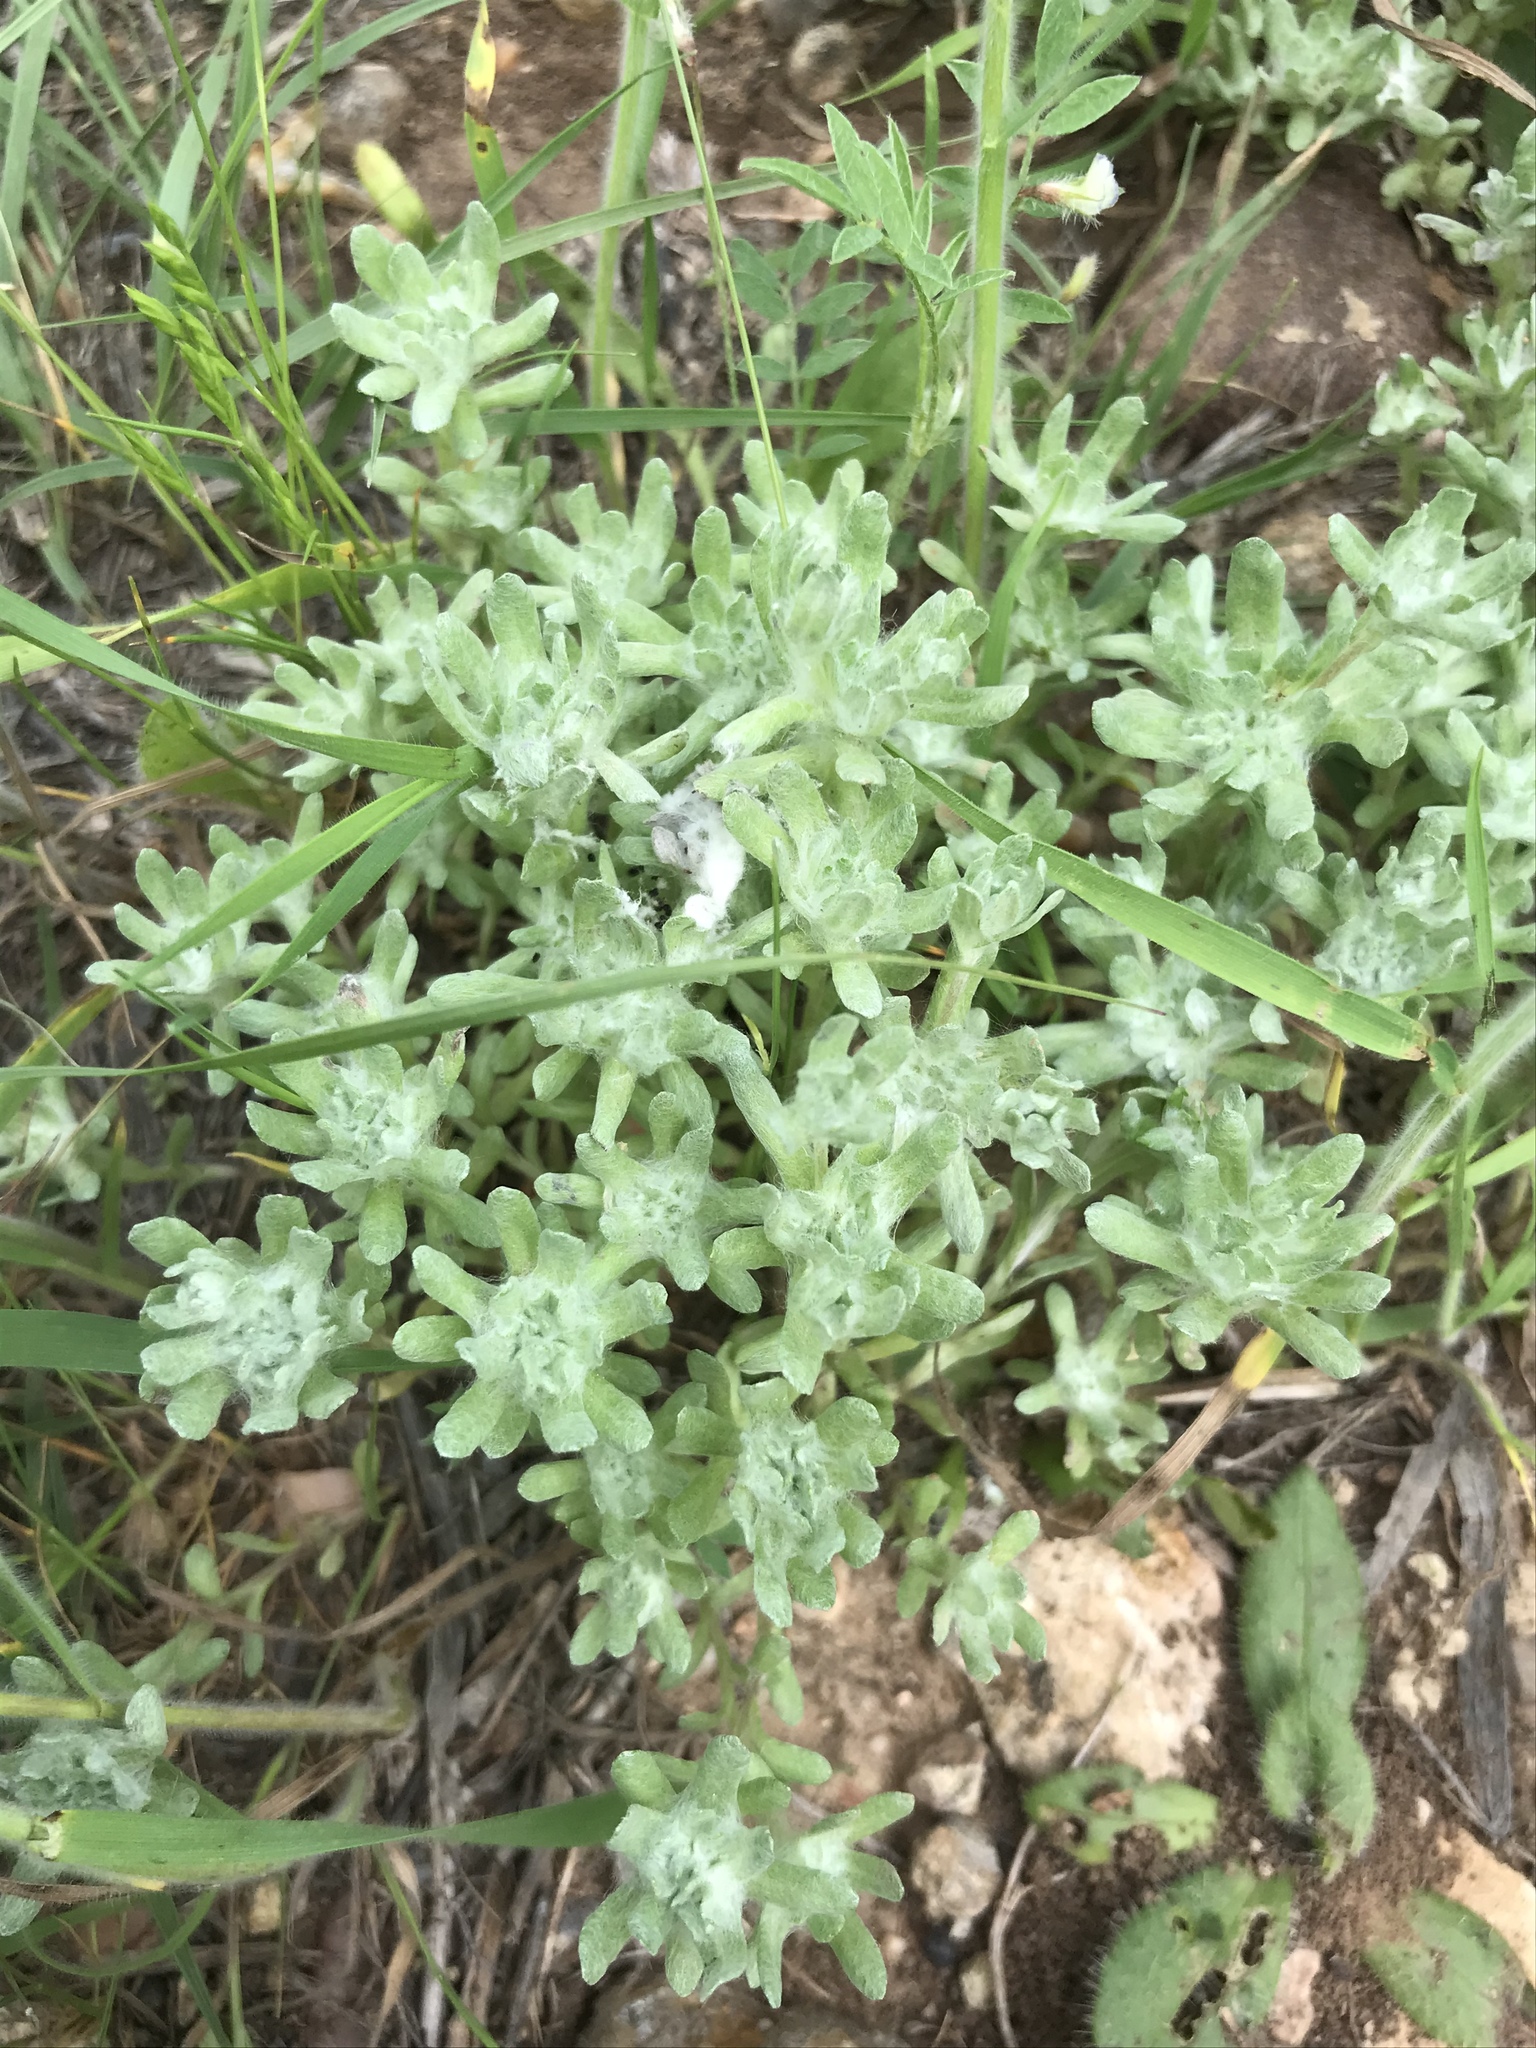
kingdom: Plantae
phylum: Tracheophyta
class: Magnoliopsida
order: Asterales
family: Asteraceae
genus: Diaperia
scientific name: Diaperia prolifera
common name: Big-head rabbit-tobacco
